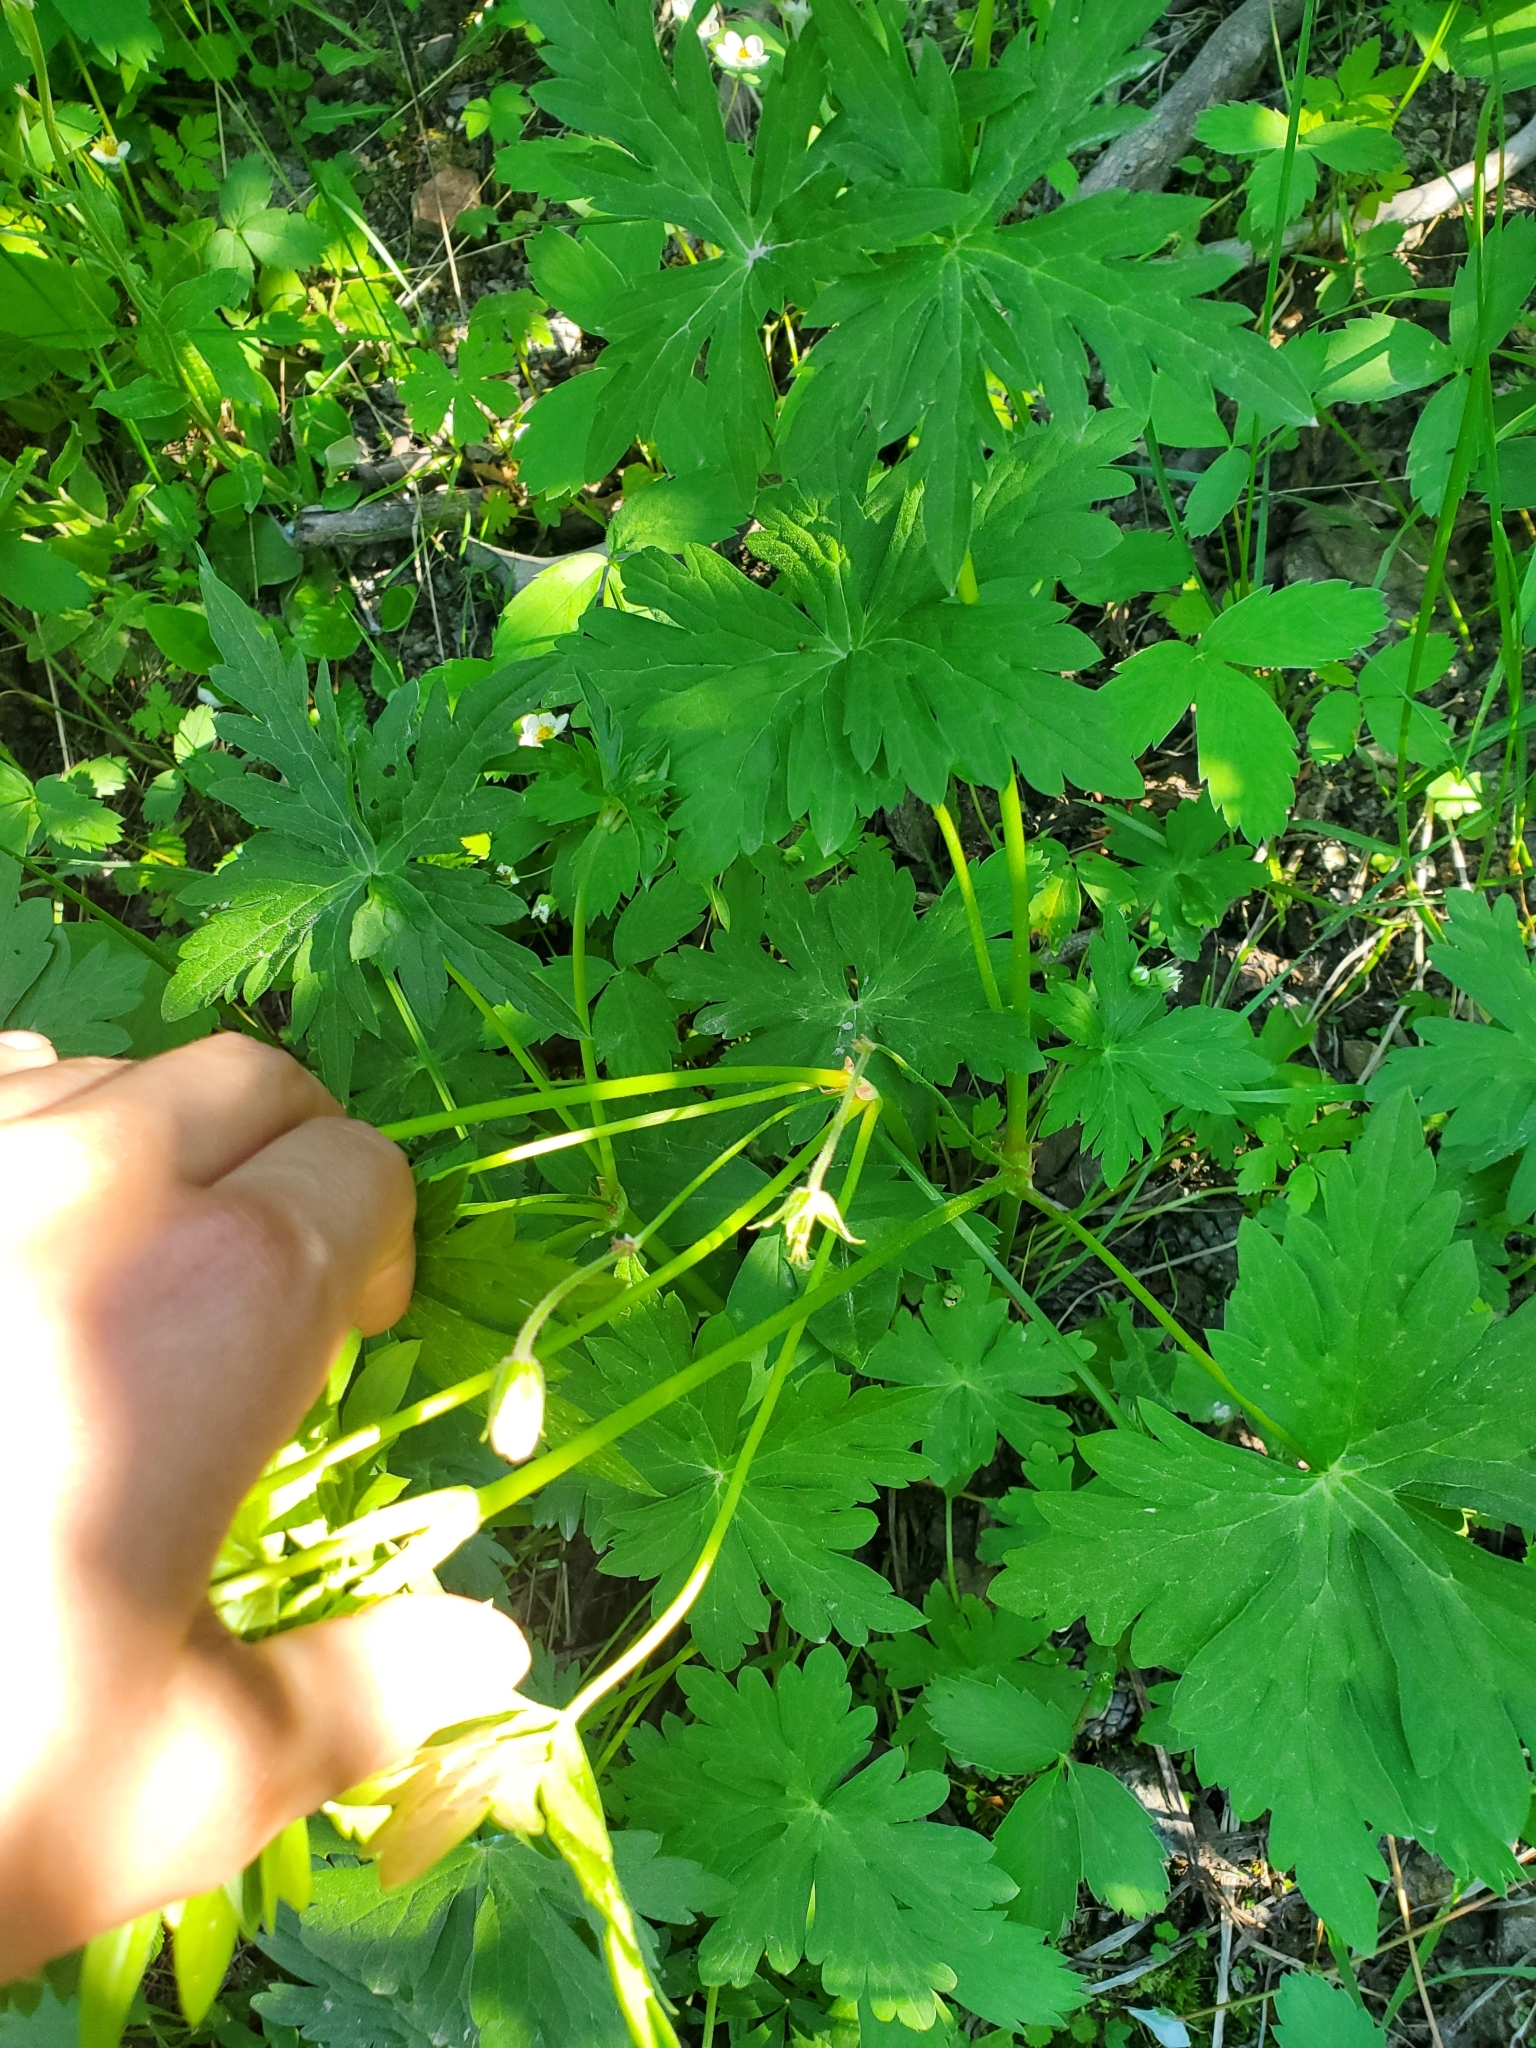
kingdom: Plantae
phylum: Tracheophyta
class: Magnoliopsida
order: Geraniales
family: Geraniaceae
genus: Geranium
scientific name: Geranium richardsonii
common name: Richardson's crane's-bill
